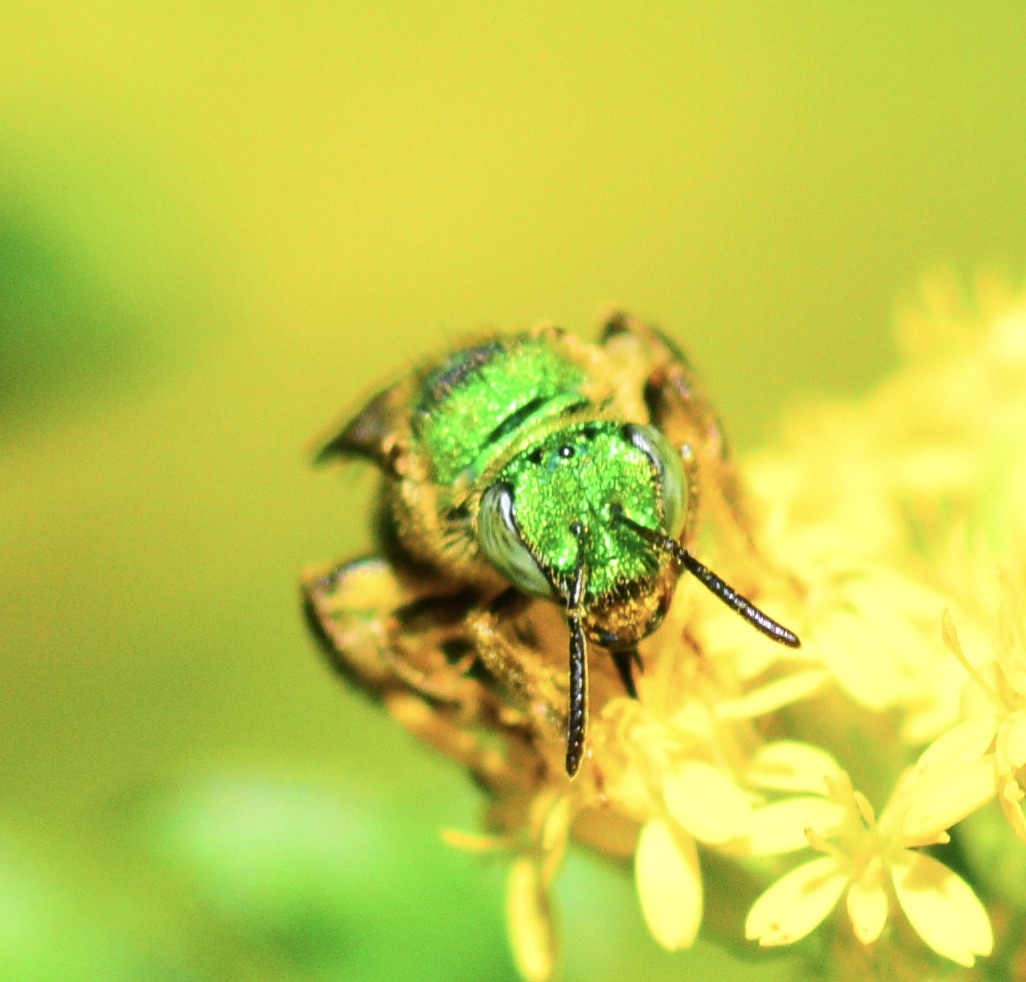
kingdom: Animalia
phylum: Arthropoda
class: Insecta
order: Hymenoptera
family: Halictidae
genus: Agapostemon
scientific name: Agapostemon sericeus
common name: Silky striped sweat bee
